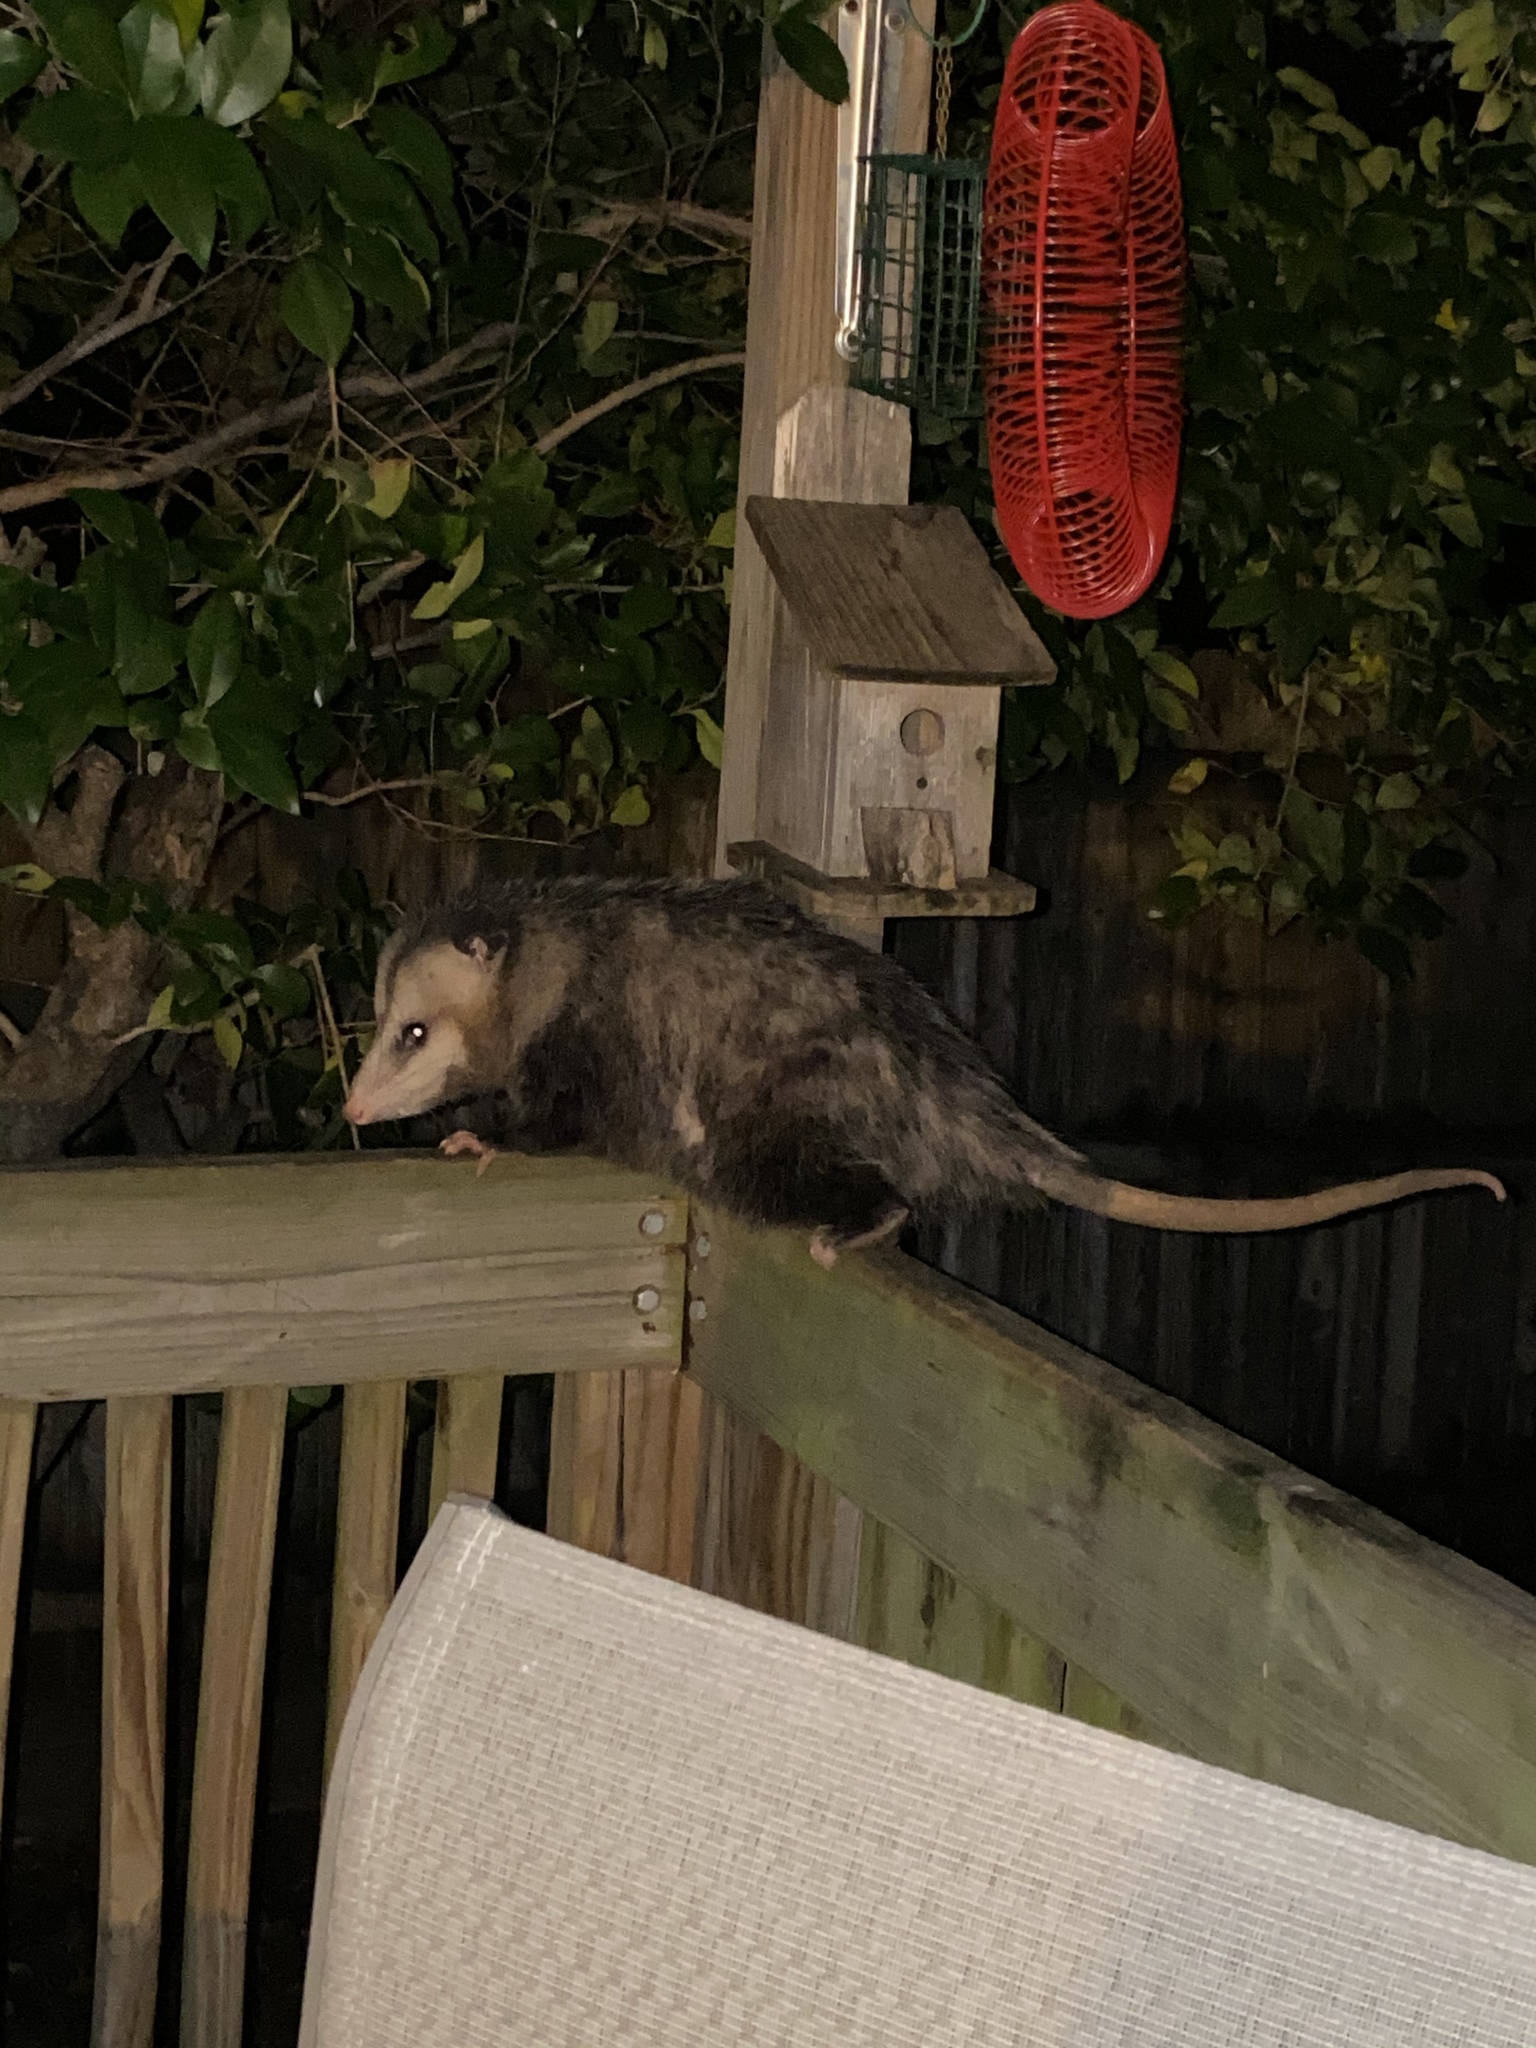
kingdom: Animalia
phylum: Chordata
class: Mammalia
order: Didelphimorphia
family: Didelphidae
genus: Didelphis
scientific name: Didelphis virginiana
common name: Virginia opossum
